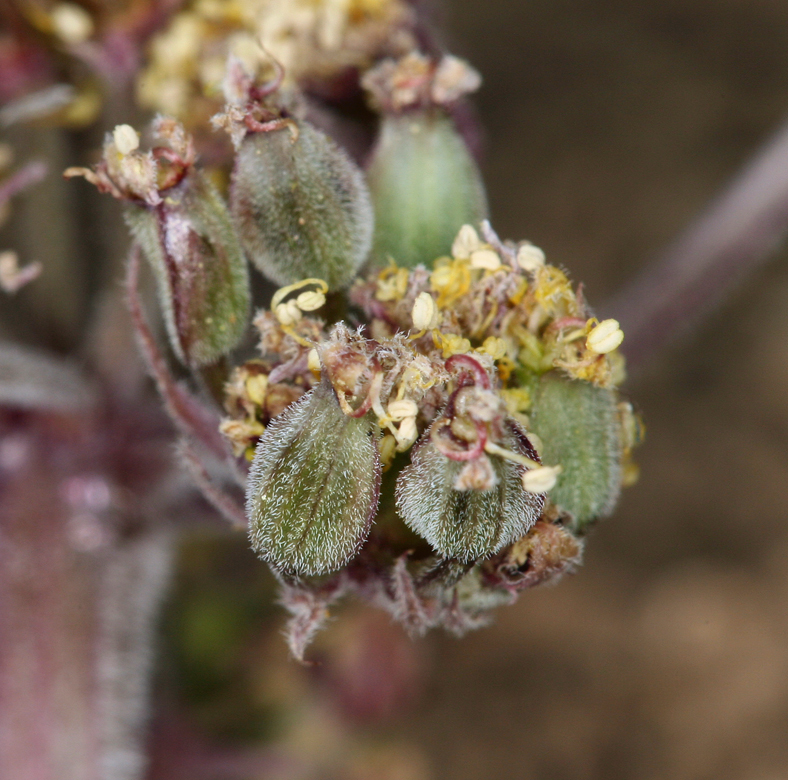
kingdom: Plantae
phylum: Tracheophyta
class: Magnoliopsida
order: Apiales
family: Apiaceae
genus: Lomatium
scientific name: Lomatium foeniculaceum
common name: Desert-parsley
